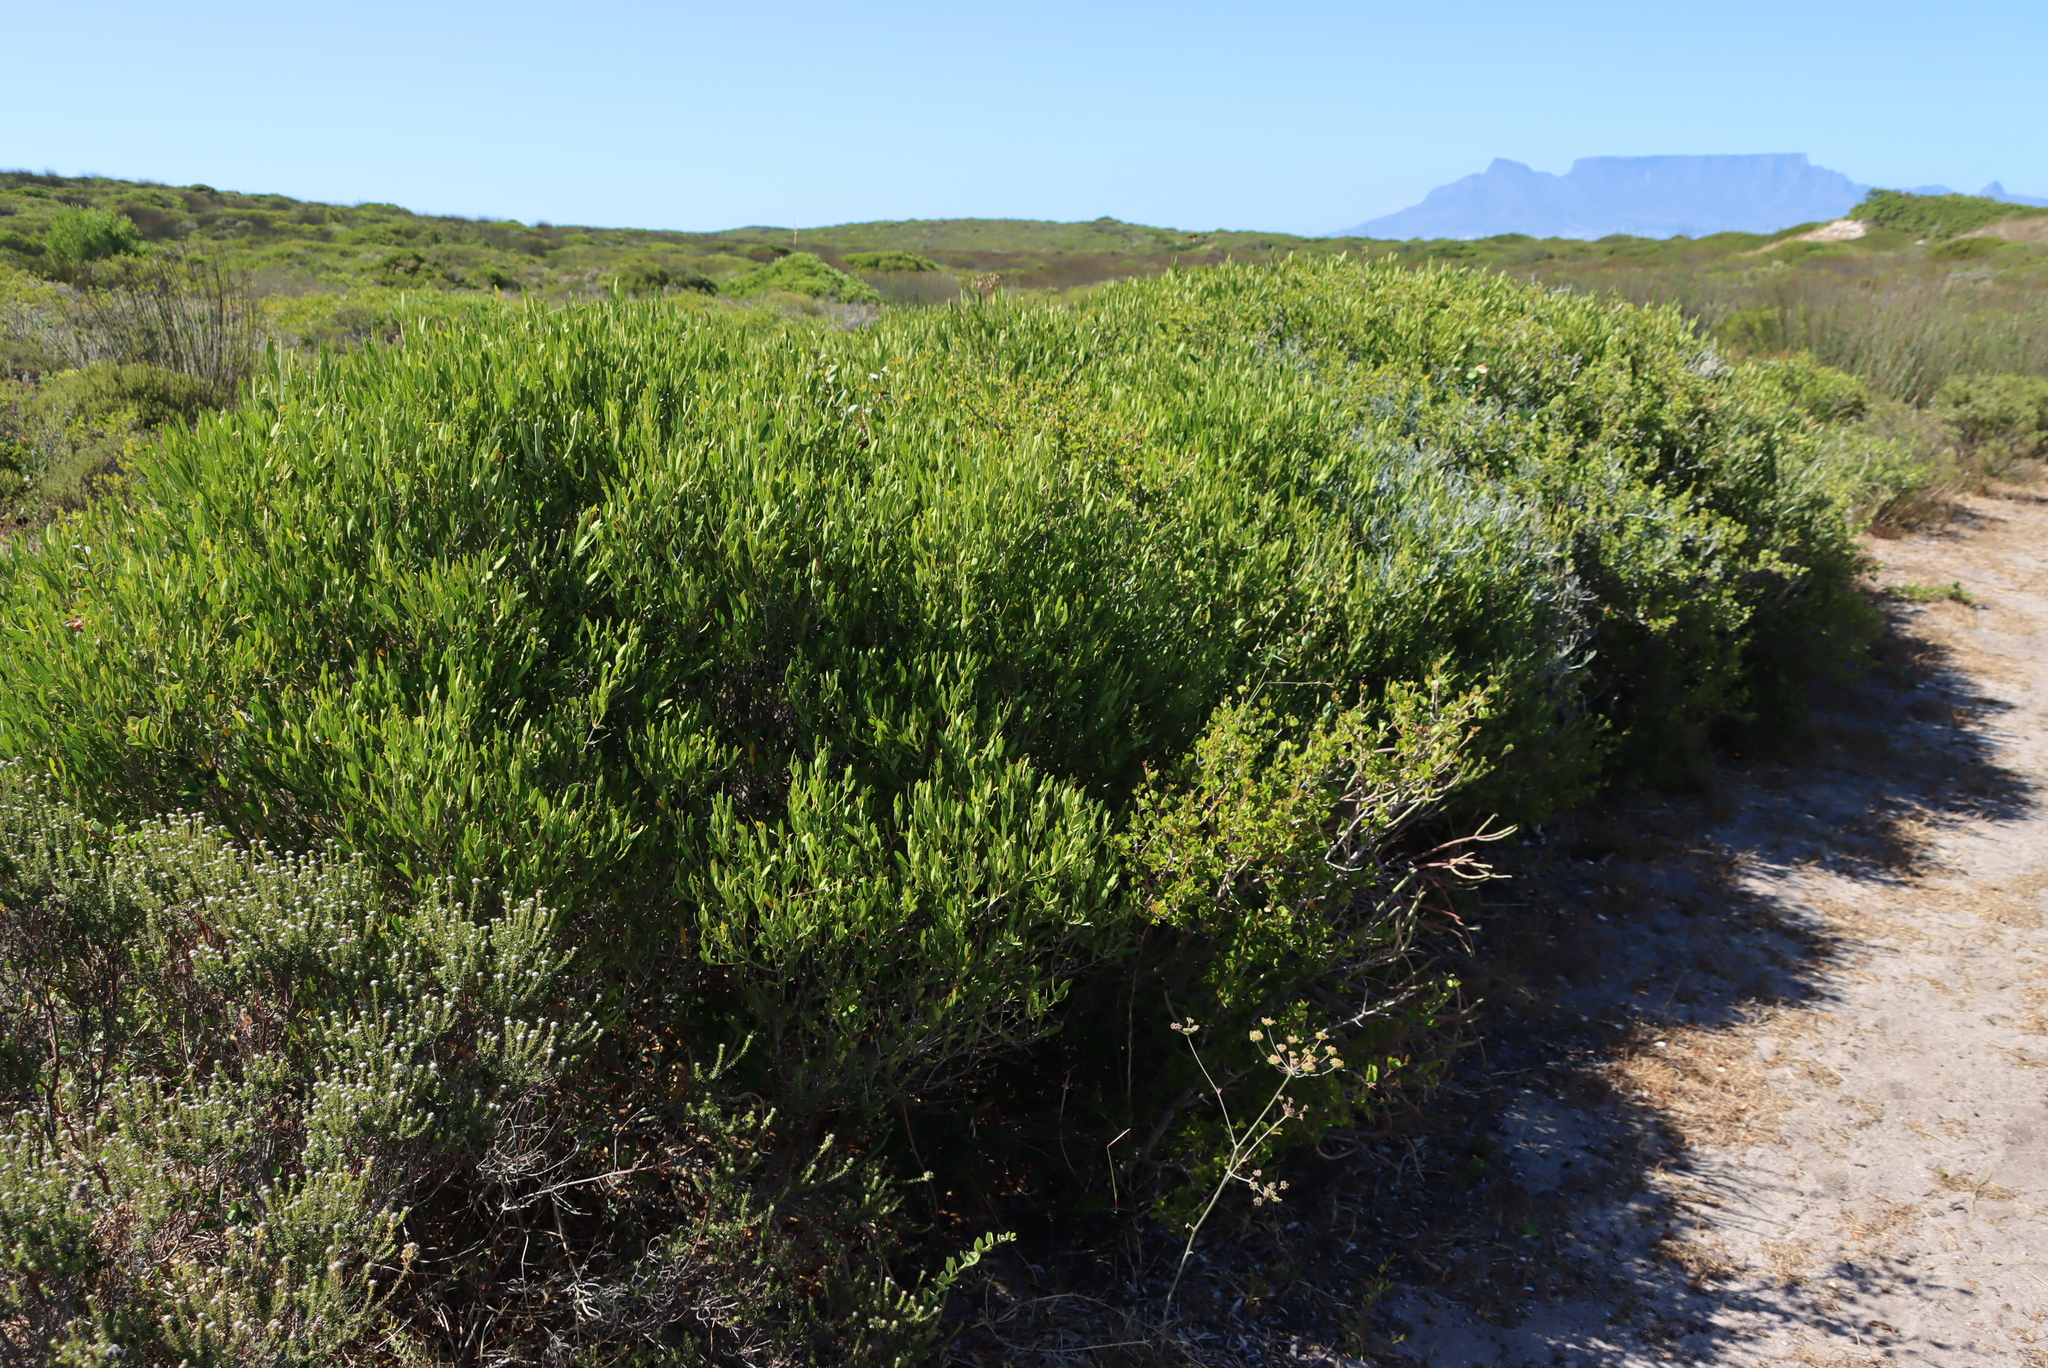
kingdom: Plantae
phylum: Tracheophyta
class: Magnoliopsida
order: Lamiales
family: Oleaceae
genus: Olea
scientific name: Olea exasperata
